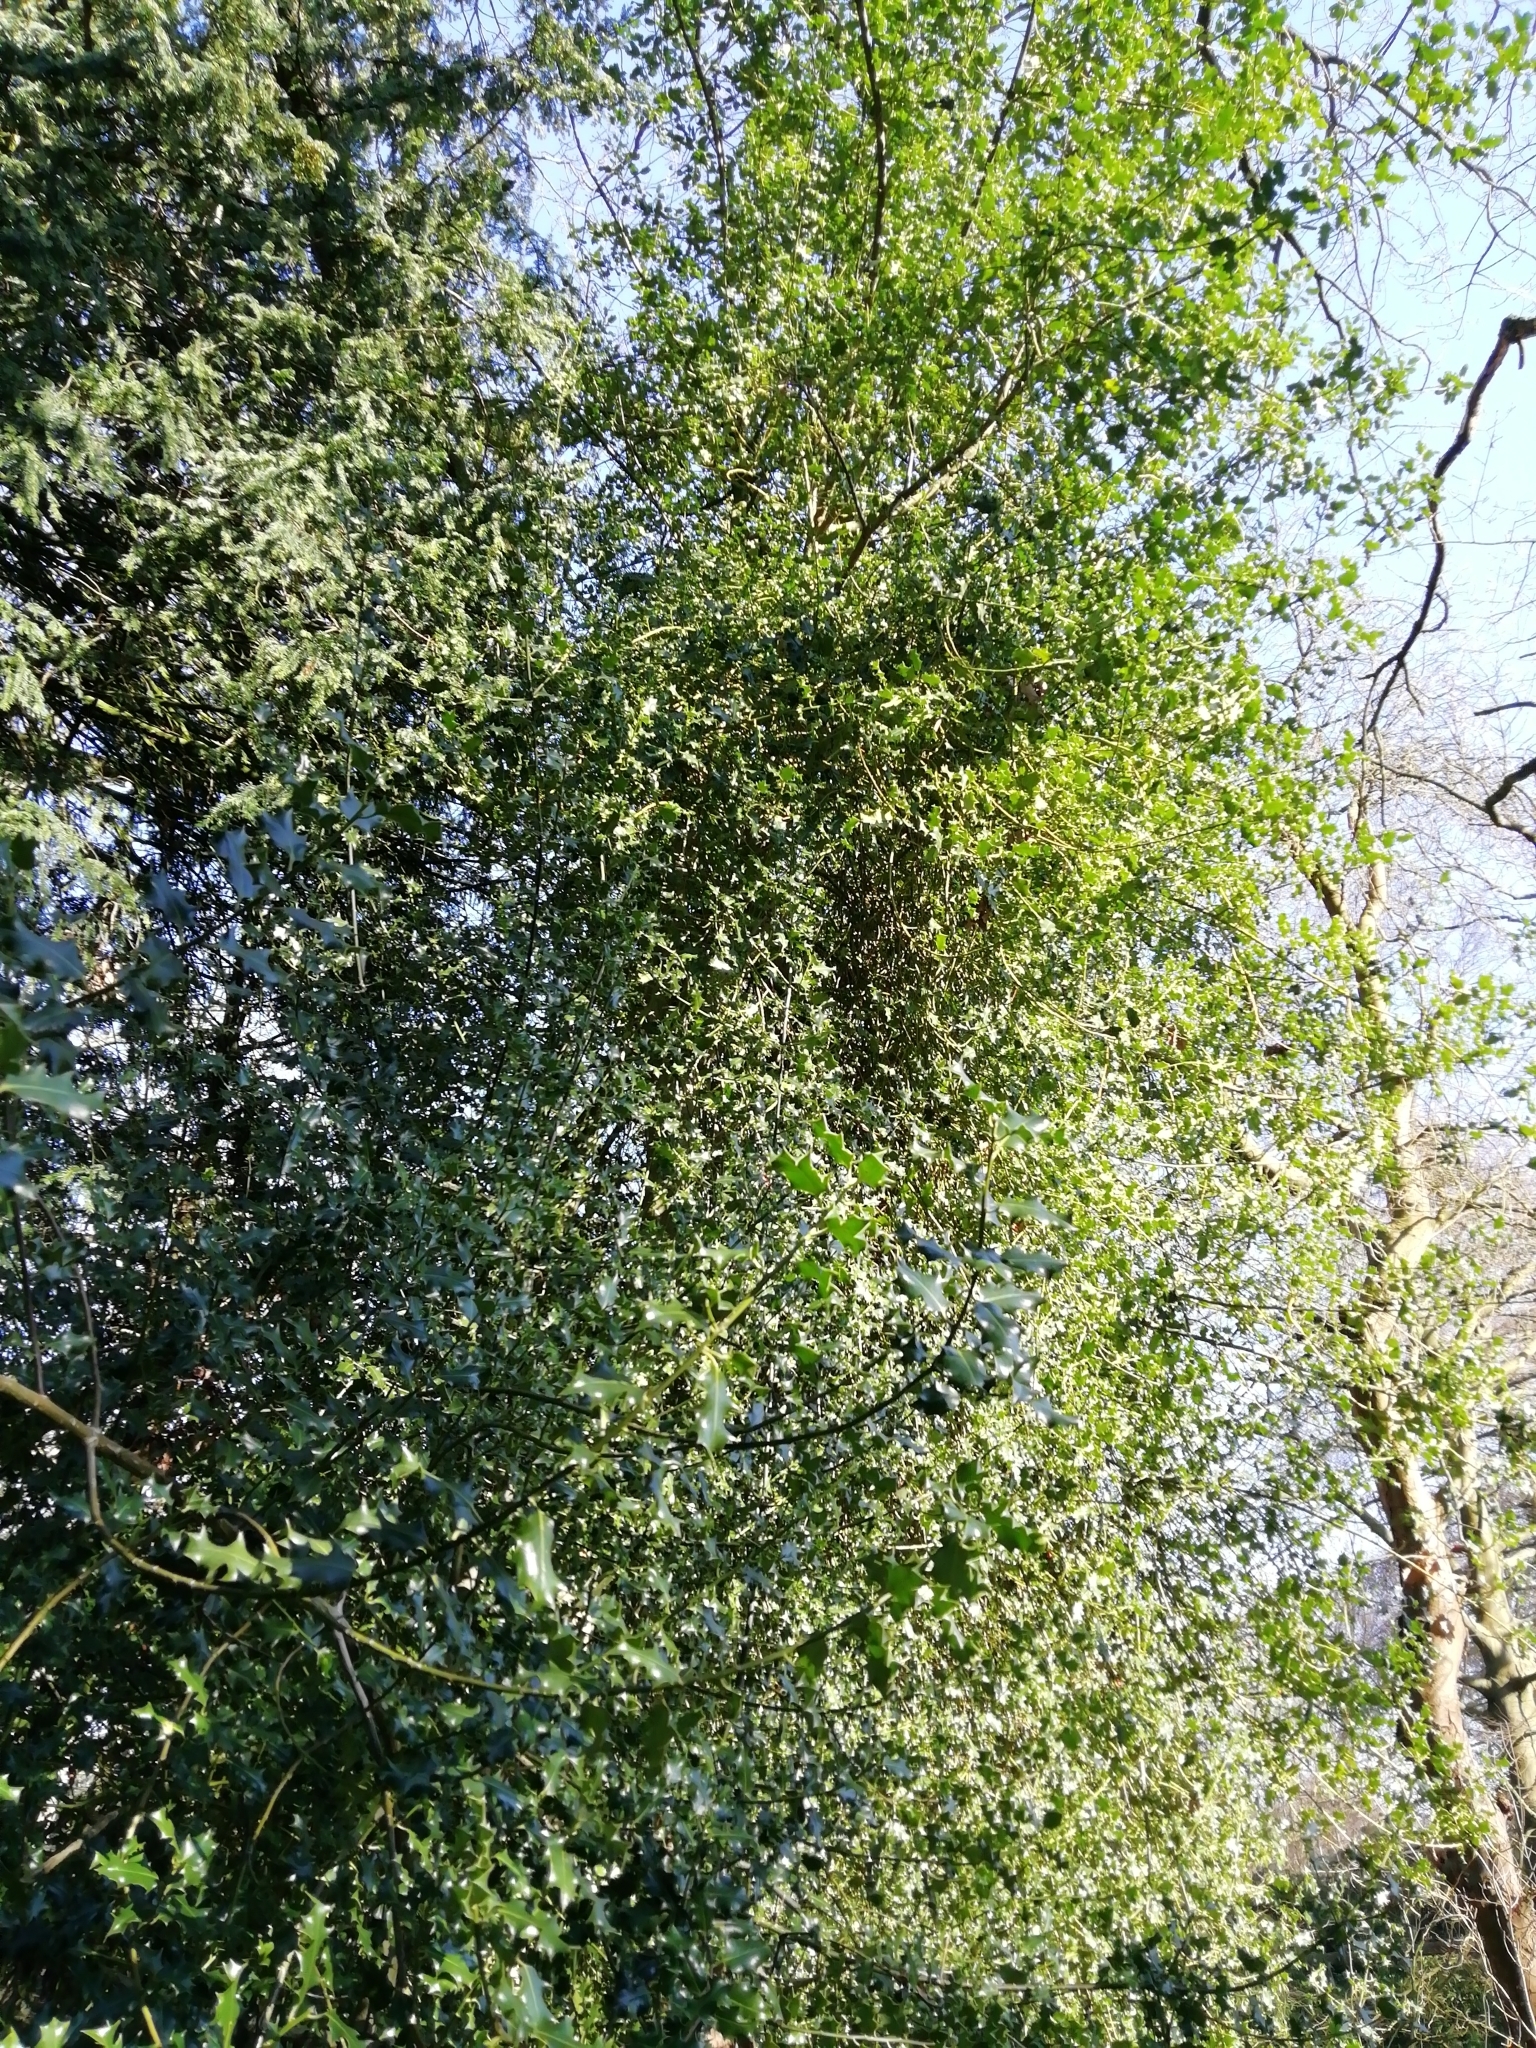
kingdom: Plantae
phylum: Tracheophyta
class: Magnoliopsida
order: Aquifoliales
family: Aquifoliaceae
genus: Ilex
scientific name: Ilex aquifolium
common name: English holly
